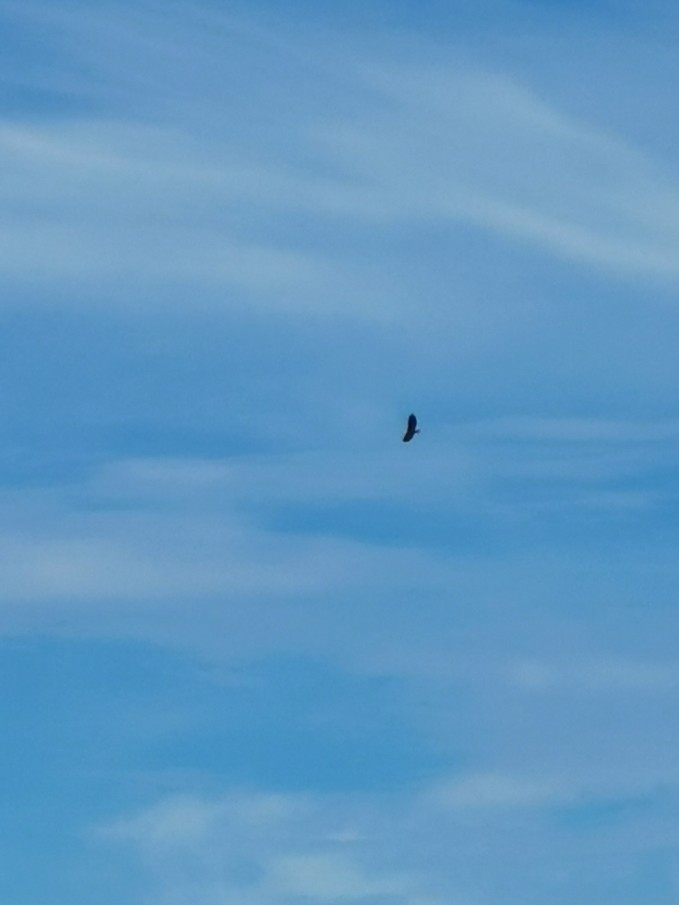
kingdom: Animalia
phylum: Chordata
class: Aves
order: Accipitriformes
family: Accipitridae
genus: Haliaeetus
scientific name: Haliaeetus leucocephalus
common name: Bald eagle
